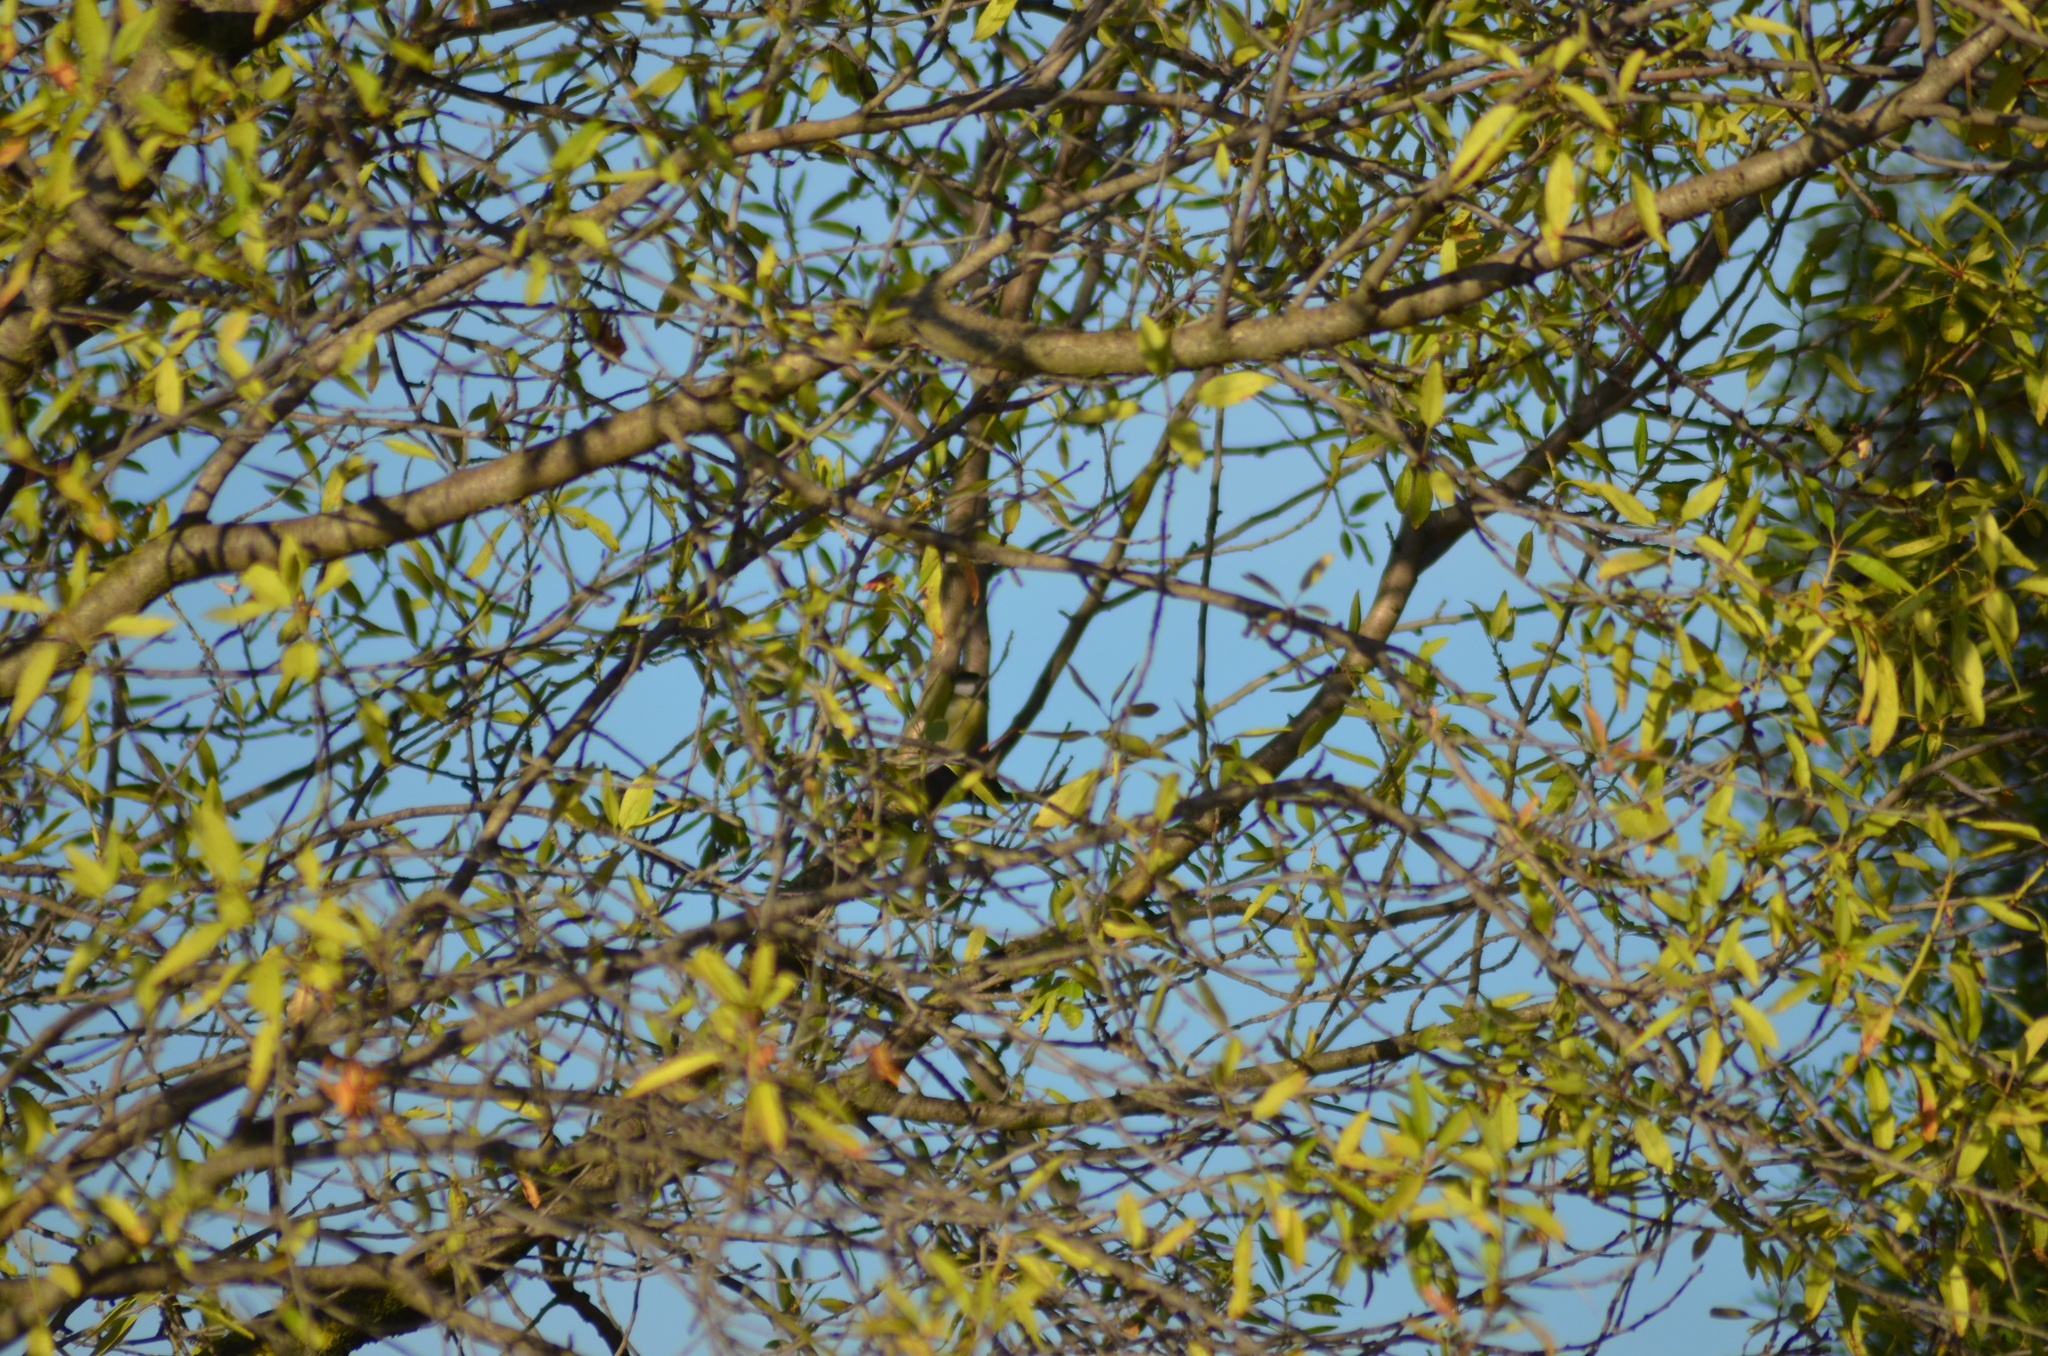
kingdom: Animalia
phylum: Chordata
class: Aves
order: Passeriformes
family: Paridae
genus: Parus
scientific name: Parus major
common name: Great tit
